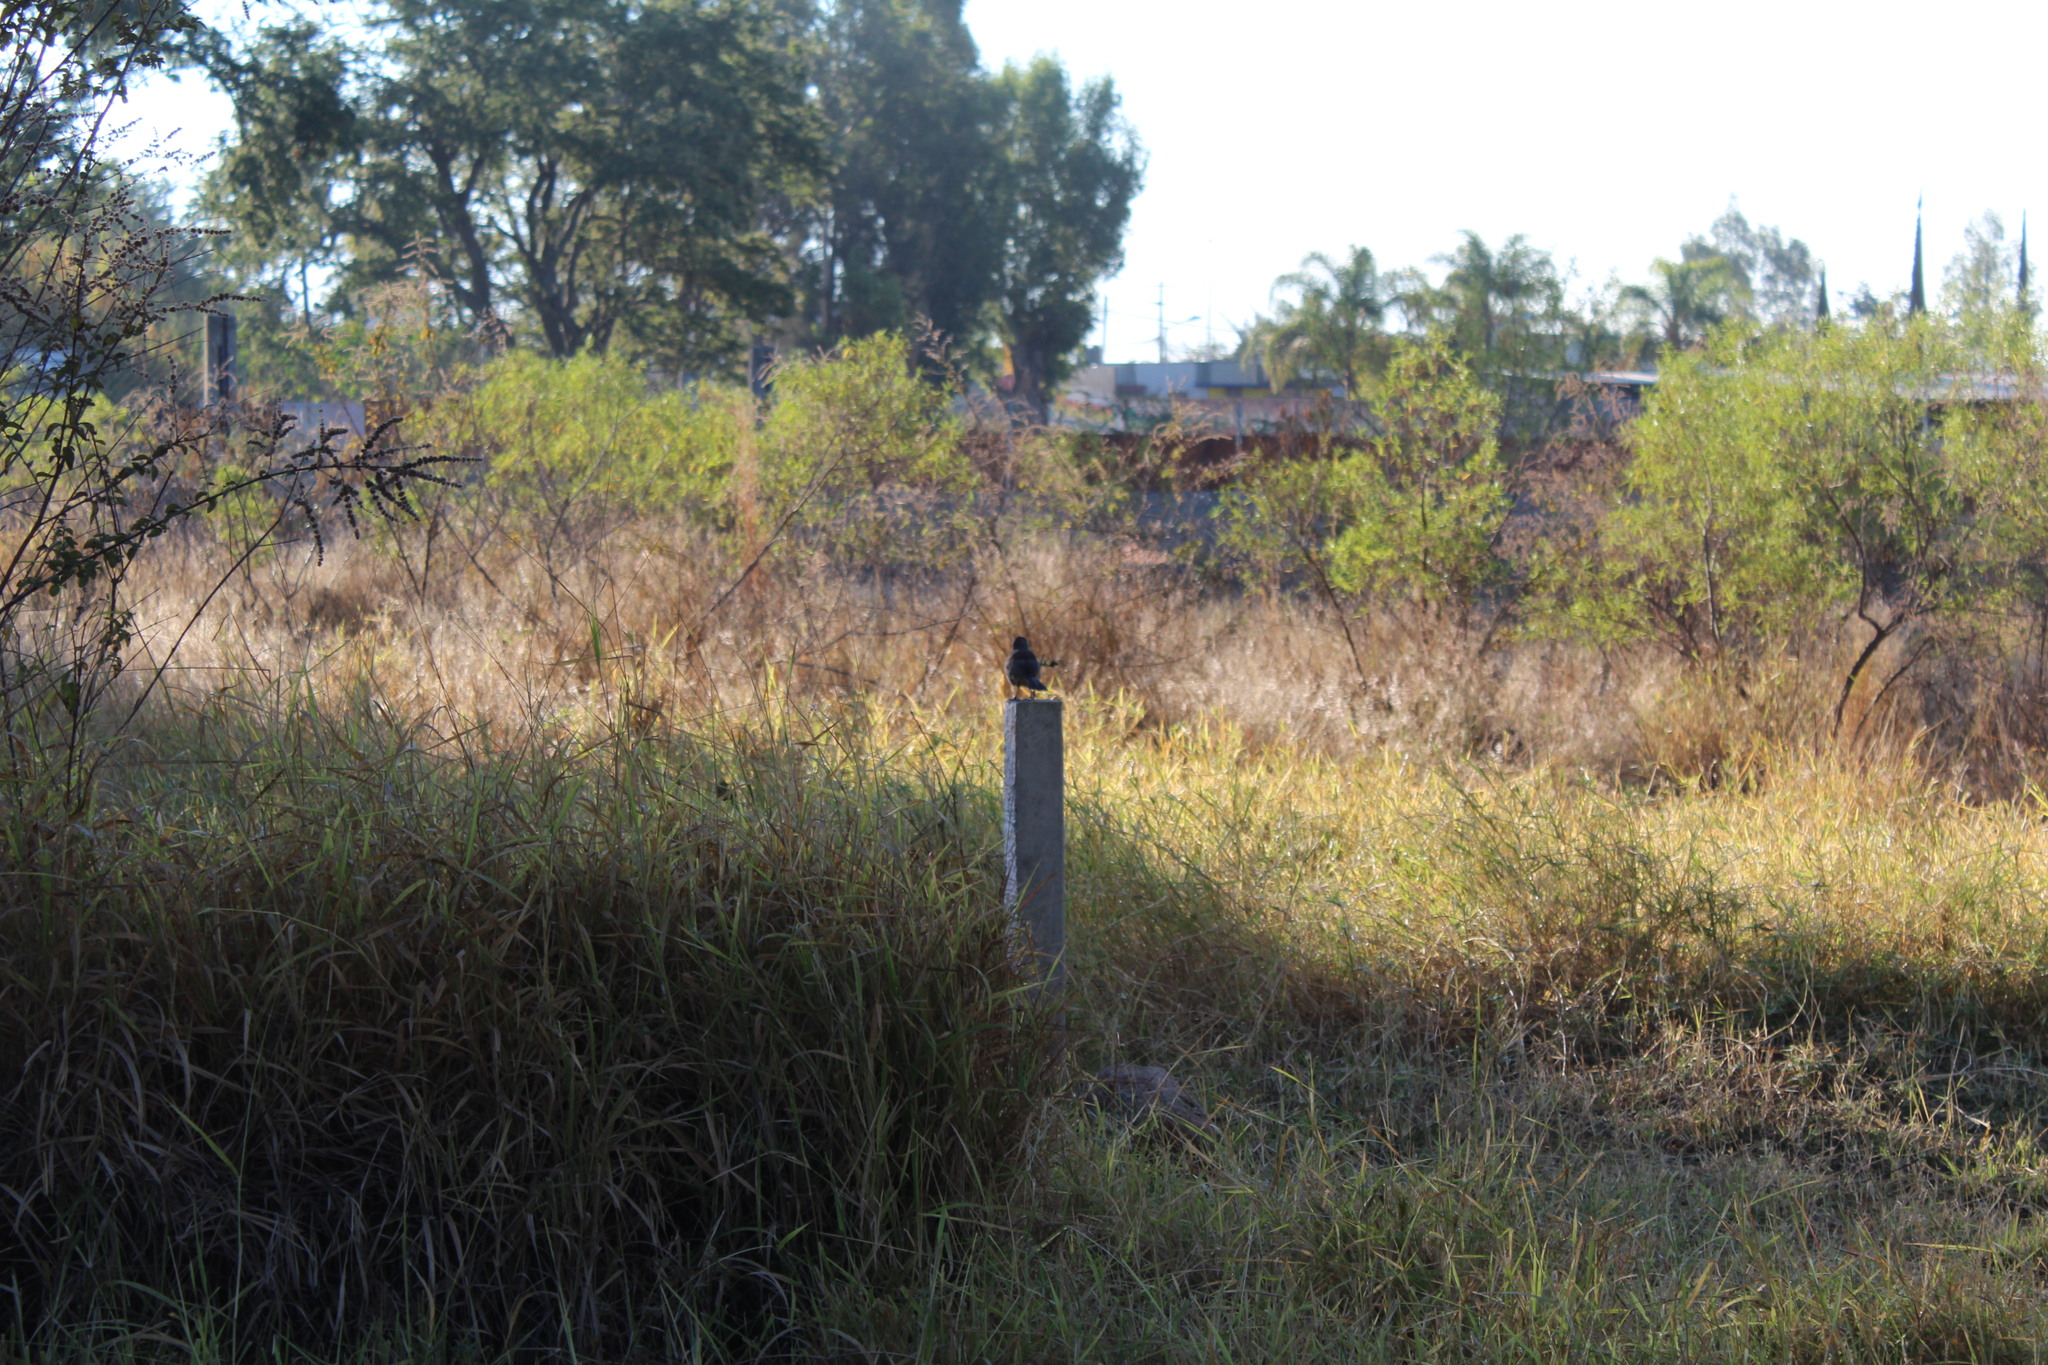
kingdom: Animalia
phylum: Chordata
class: Aves
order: Passeriformes
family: Mimidae
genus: Toxostoma
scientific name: Toxostoma curvirostre
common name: Curve-billed thrasher
